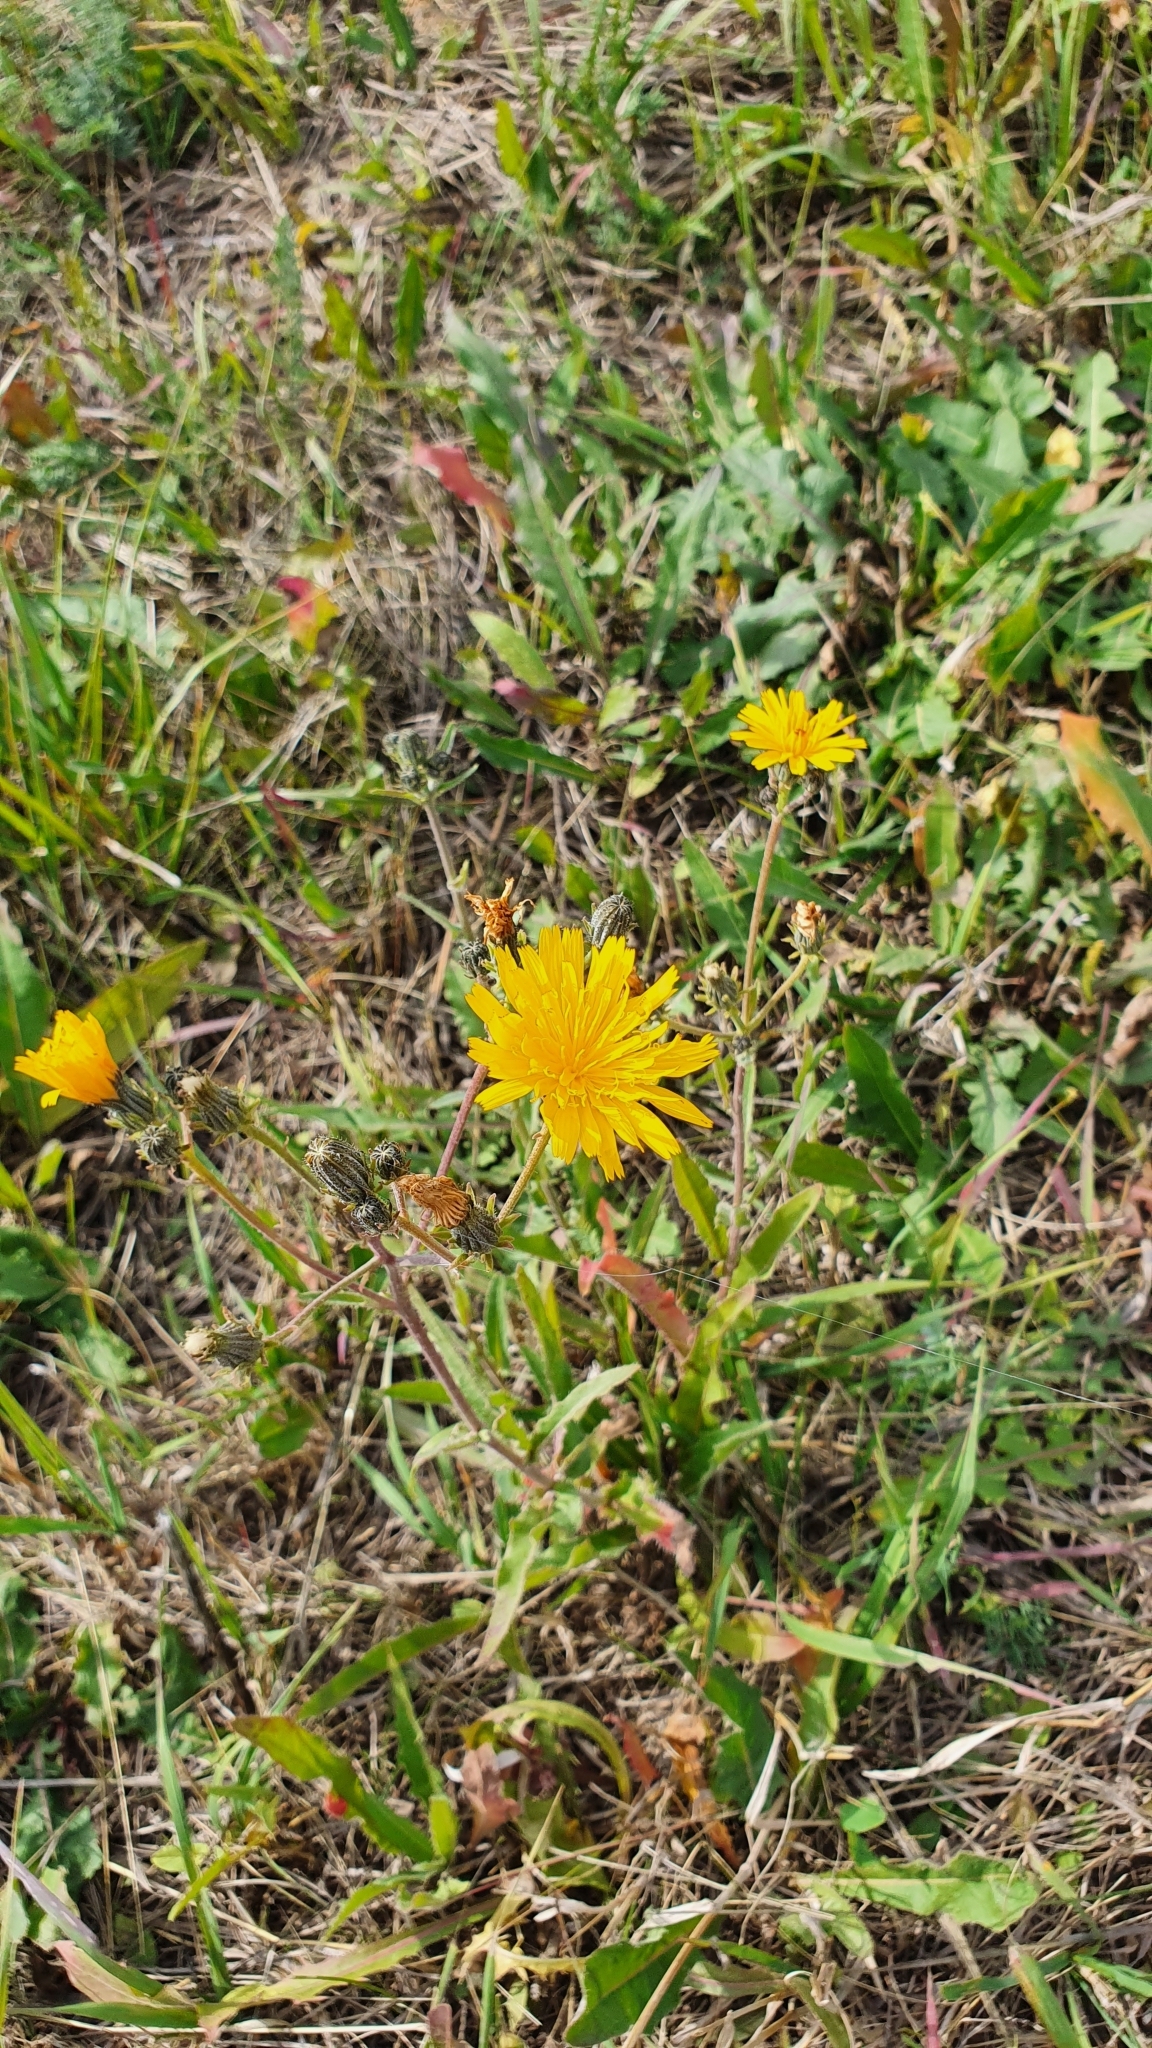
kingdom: Plantae
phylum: Tracheophyta
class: Magnoliopsida
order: Asterales
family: Asteraceae
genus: Picris
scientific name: Picris hieracioides
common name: Hawkweed oxtongue
